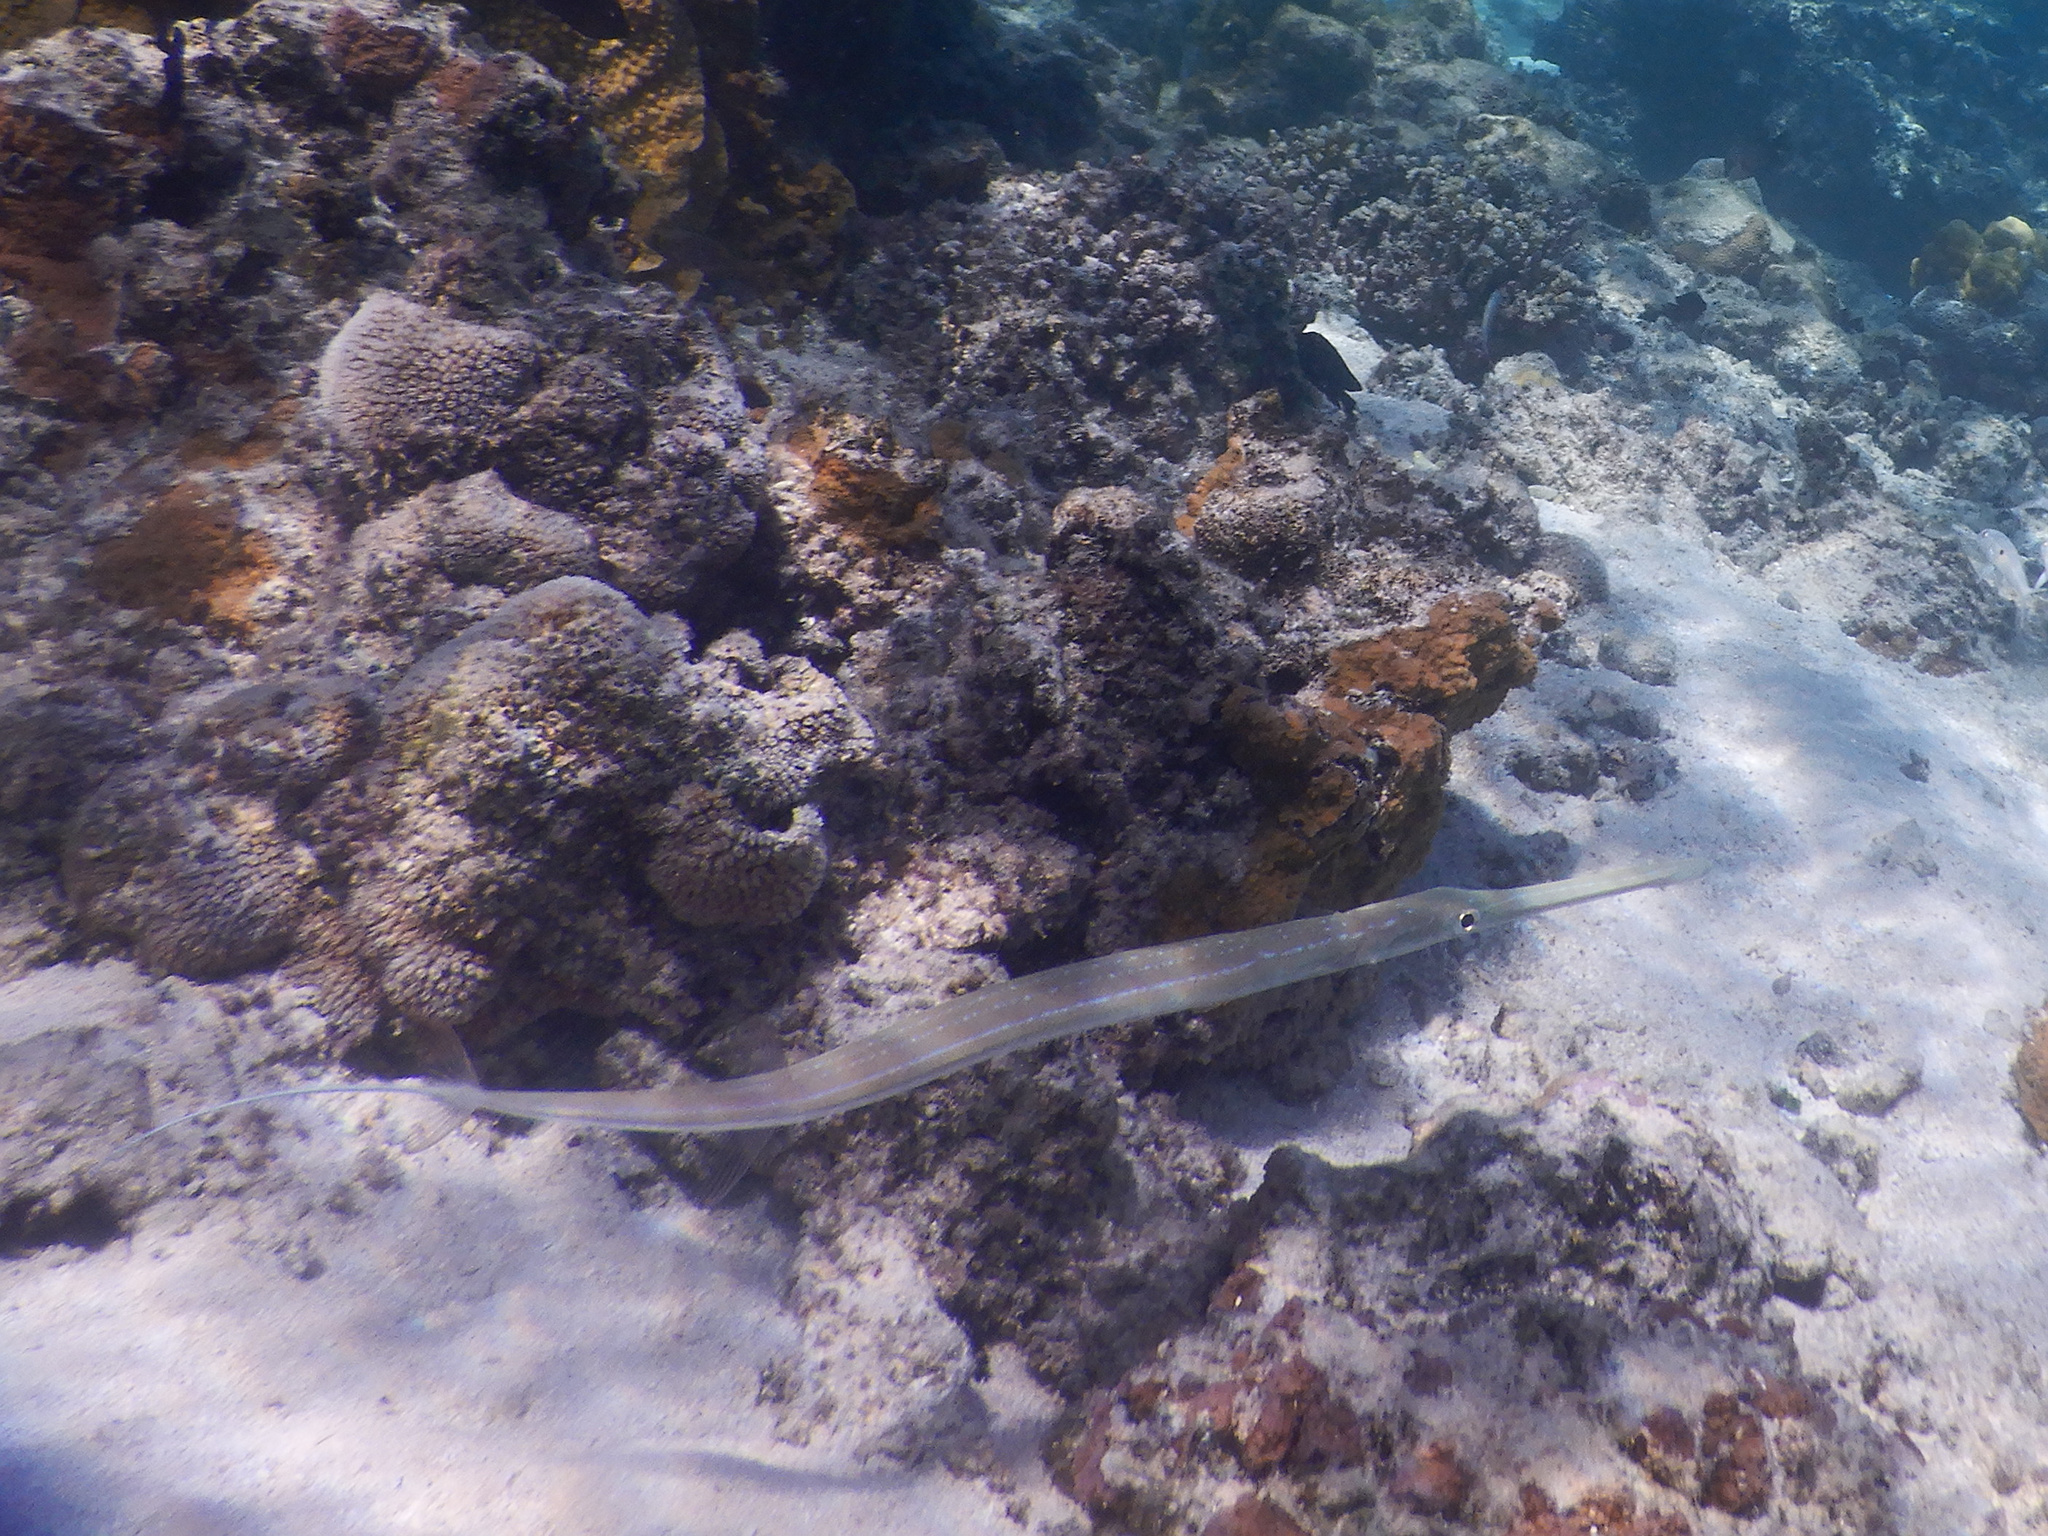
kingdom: Animalia
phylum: Chordata
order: Syngnathiformes
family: Fistulariidae
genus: Fistularia
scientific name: Fistularia commersonii
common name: Bluespotted cornetfish
